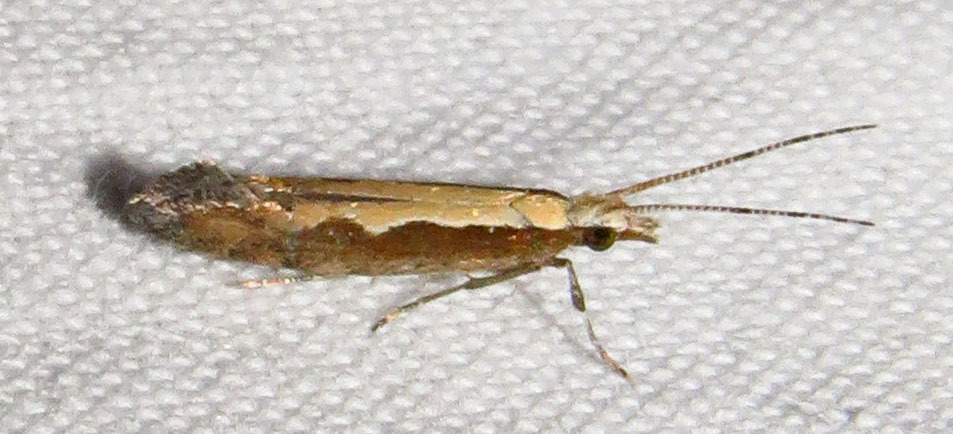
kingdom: Animalia
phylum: Arthropoda
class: Insecta
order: Lepidoptera
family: Plutellidae
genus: Plutella
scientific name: Plutella xylostella
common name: Diamond-back moth
